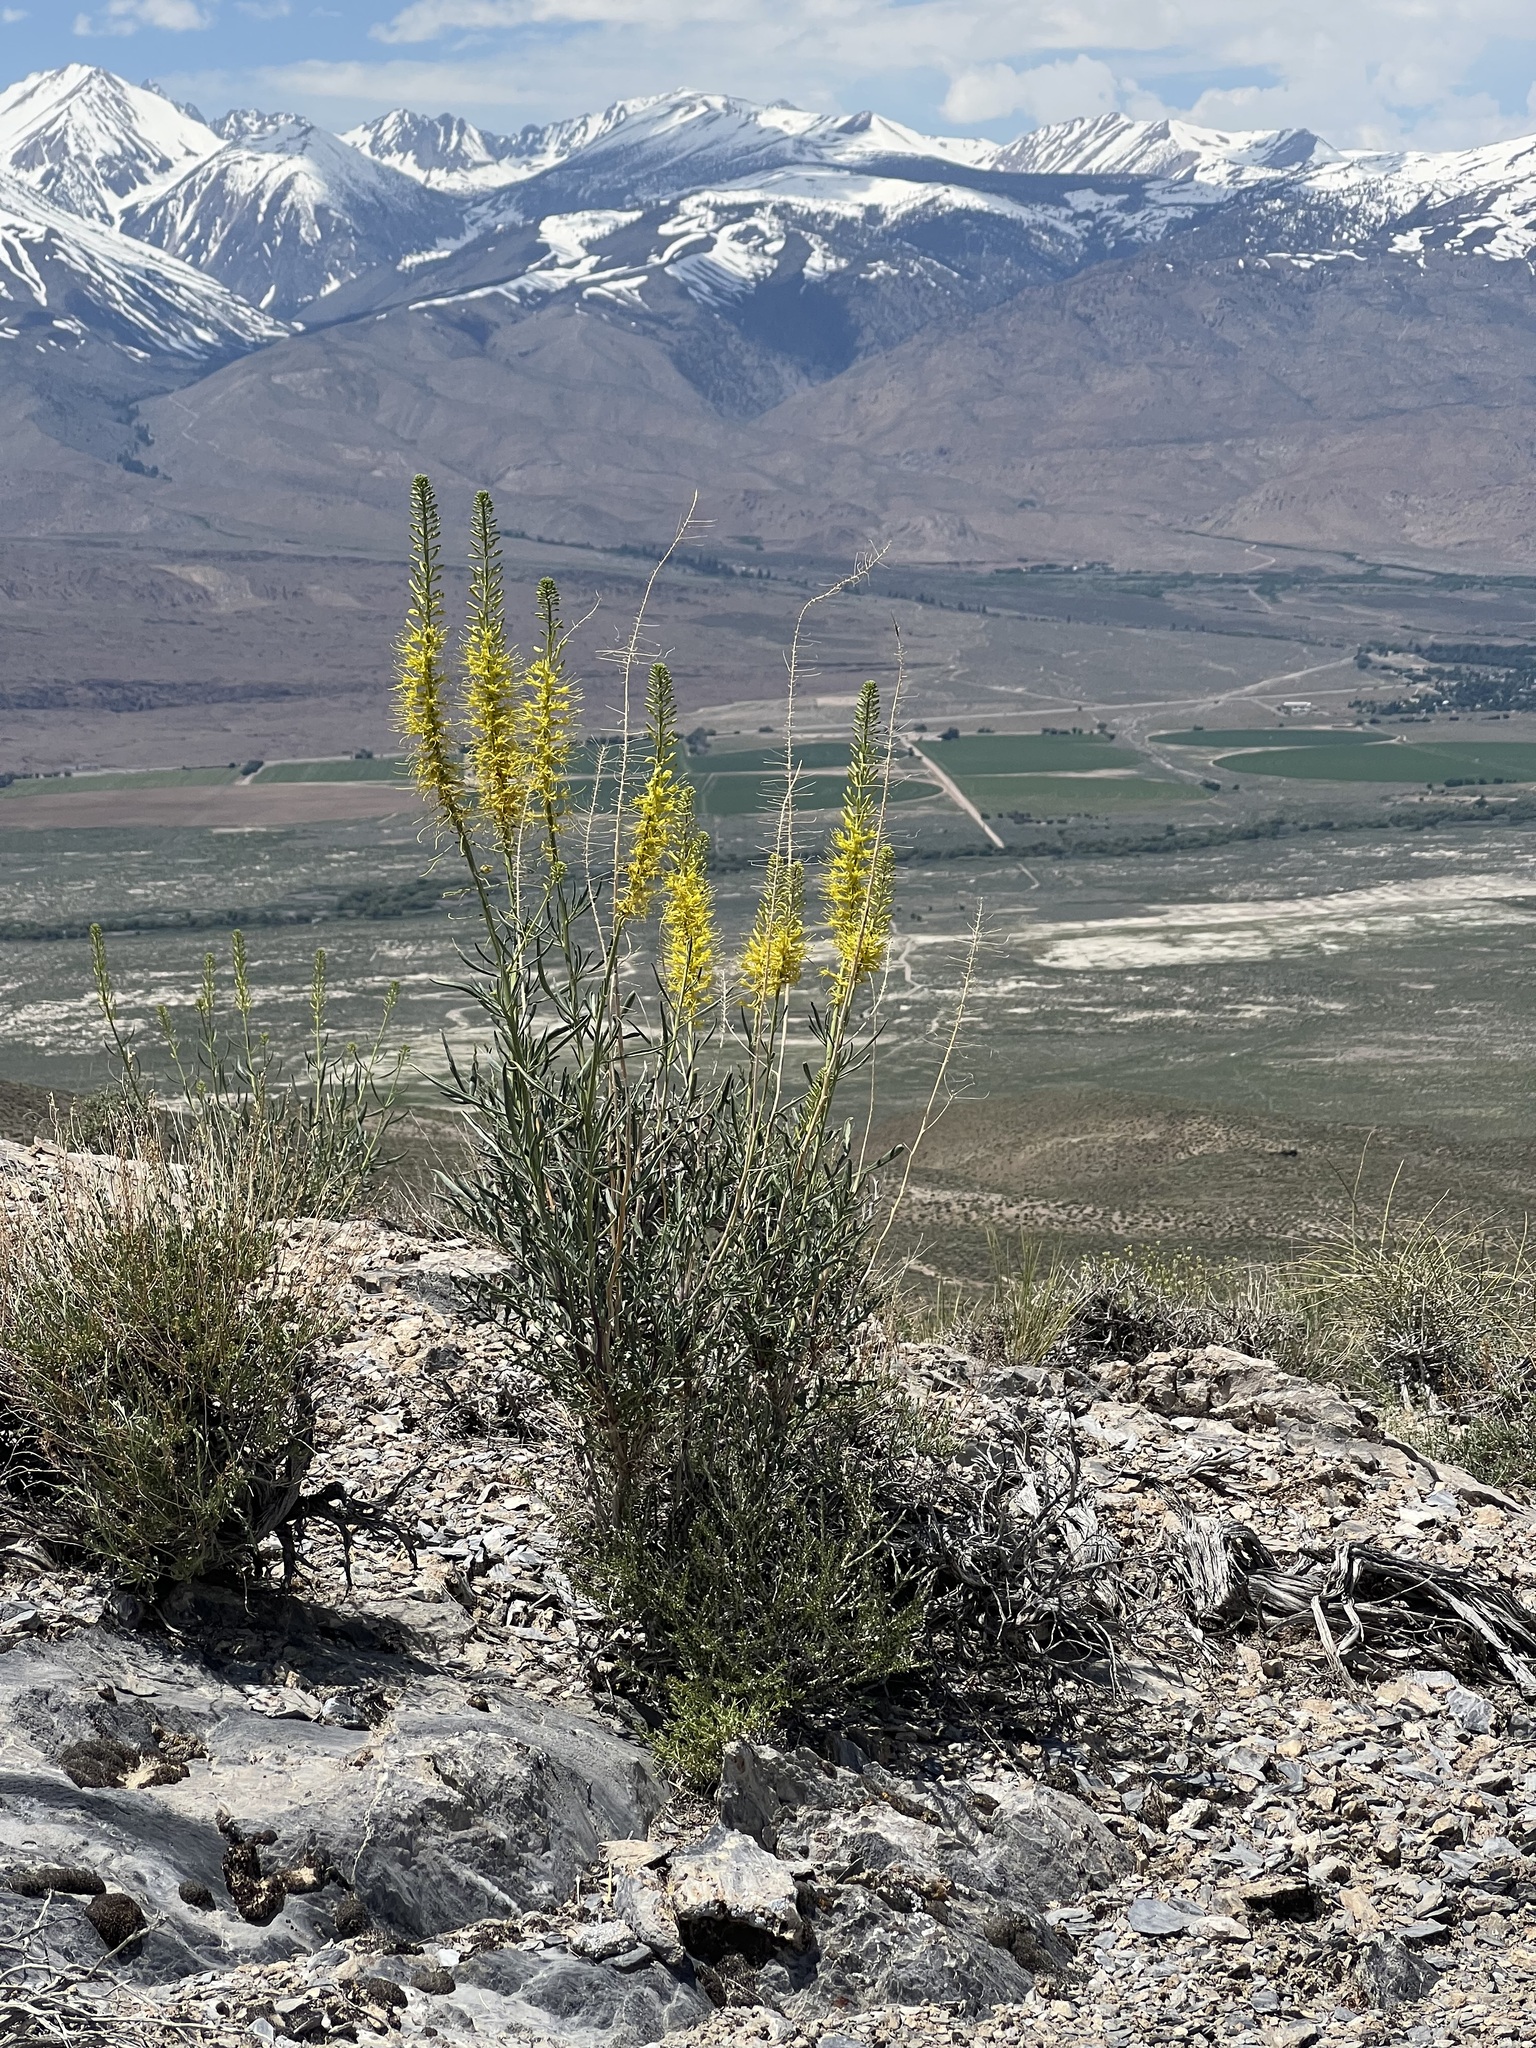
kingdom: Plantae
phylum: Tracheophyta
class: Magnoliopsida
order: Brassicales
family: Brassicaceae
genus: Stanleya
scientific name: Stanleya pinnata
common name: Prince's-plume
